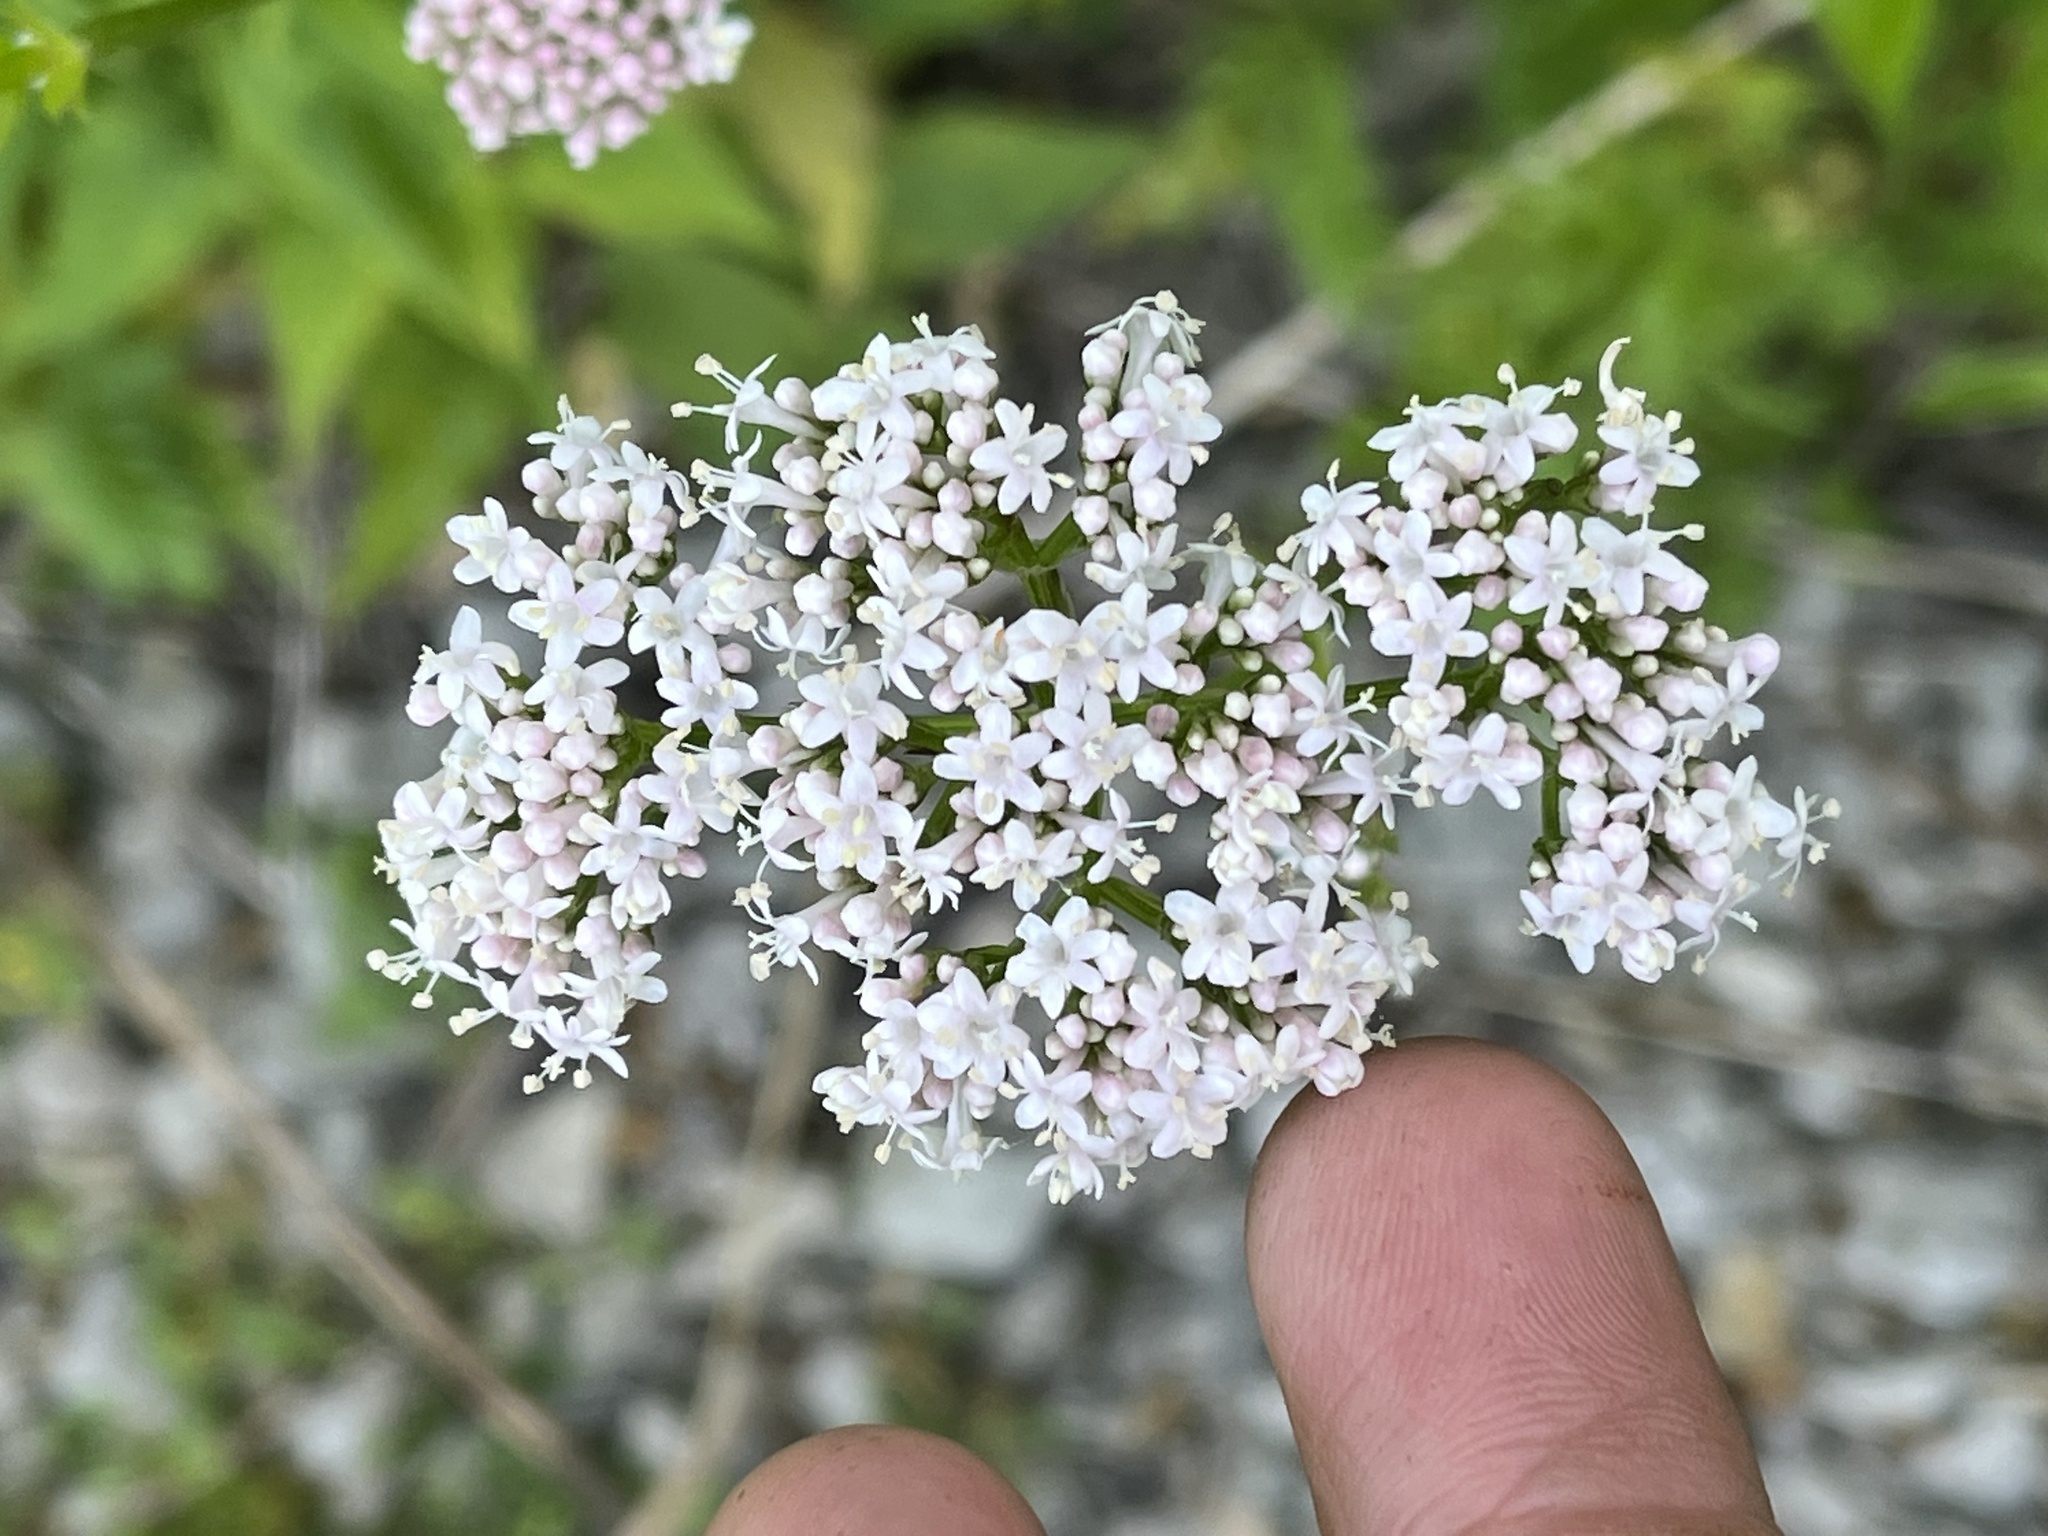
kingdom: Plantae
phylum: Tracheophyta
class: Magnoliopsida
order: Dipsacales
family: Caprifoliaceae
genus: Valeriana
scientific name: Valeriana officinalis
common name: Common valerian
